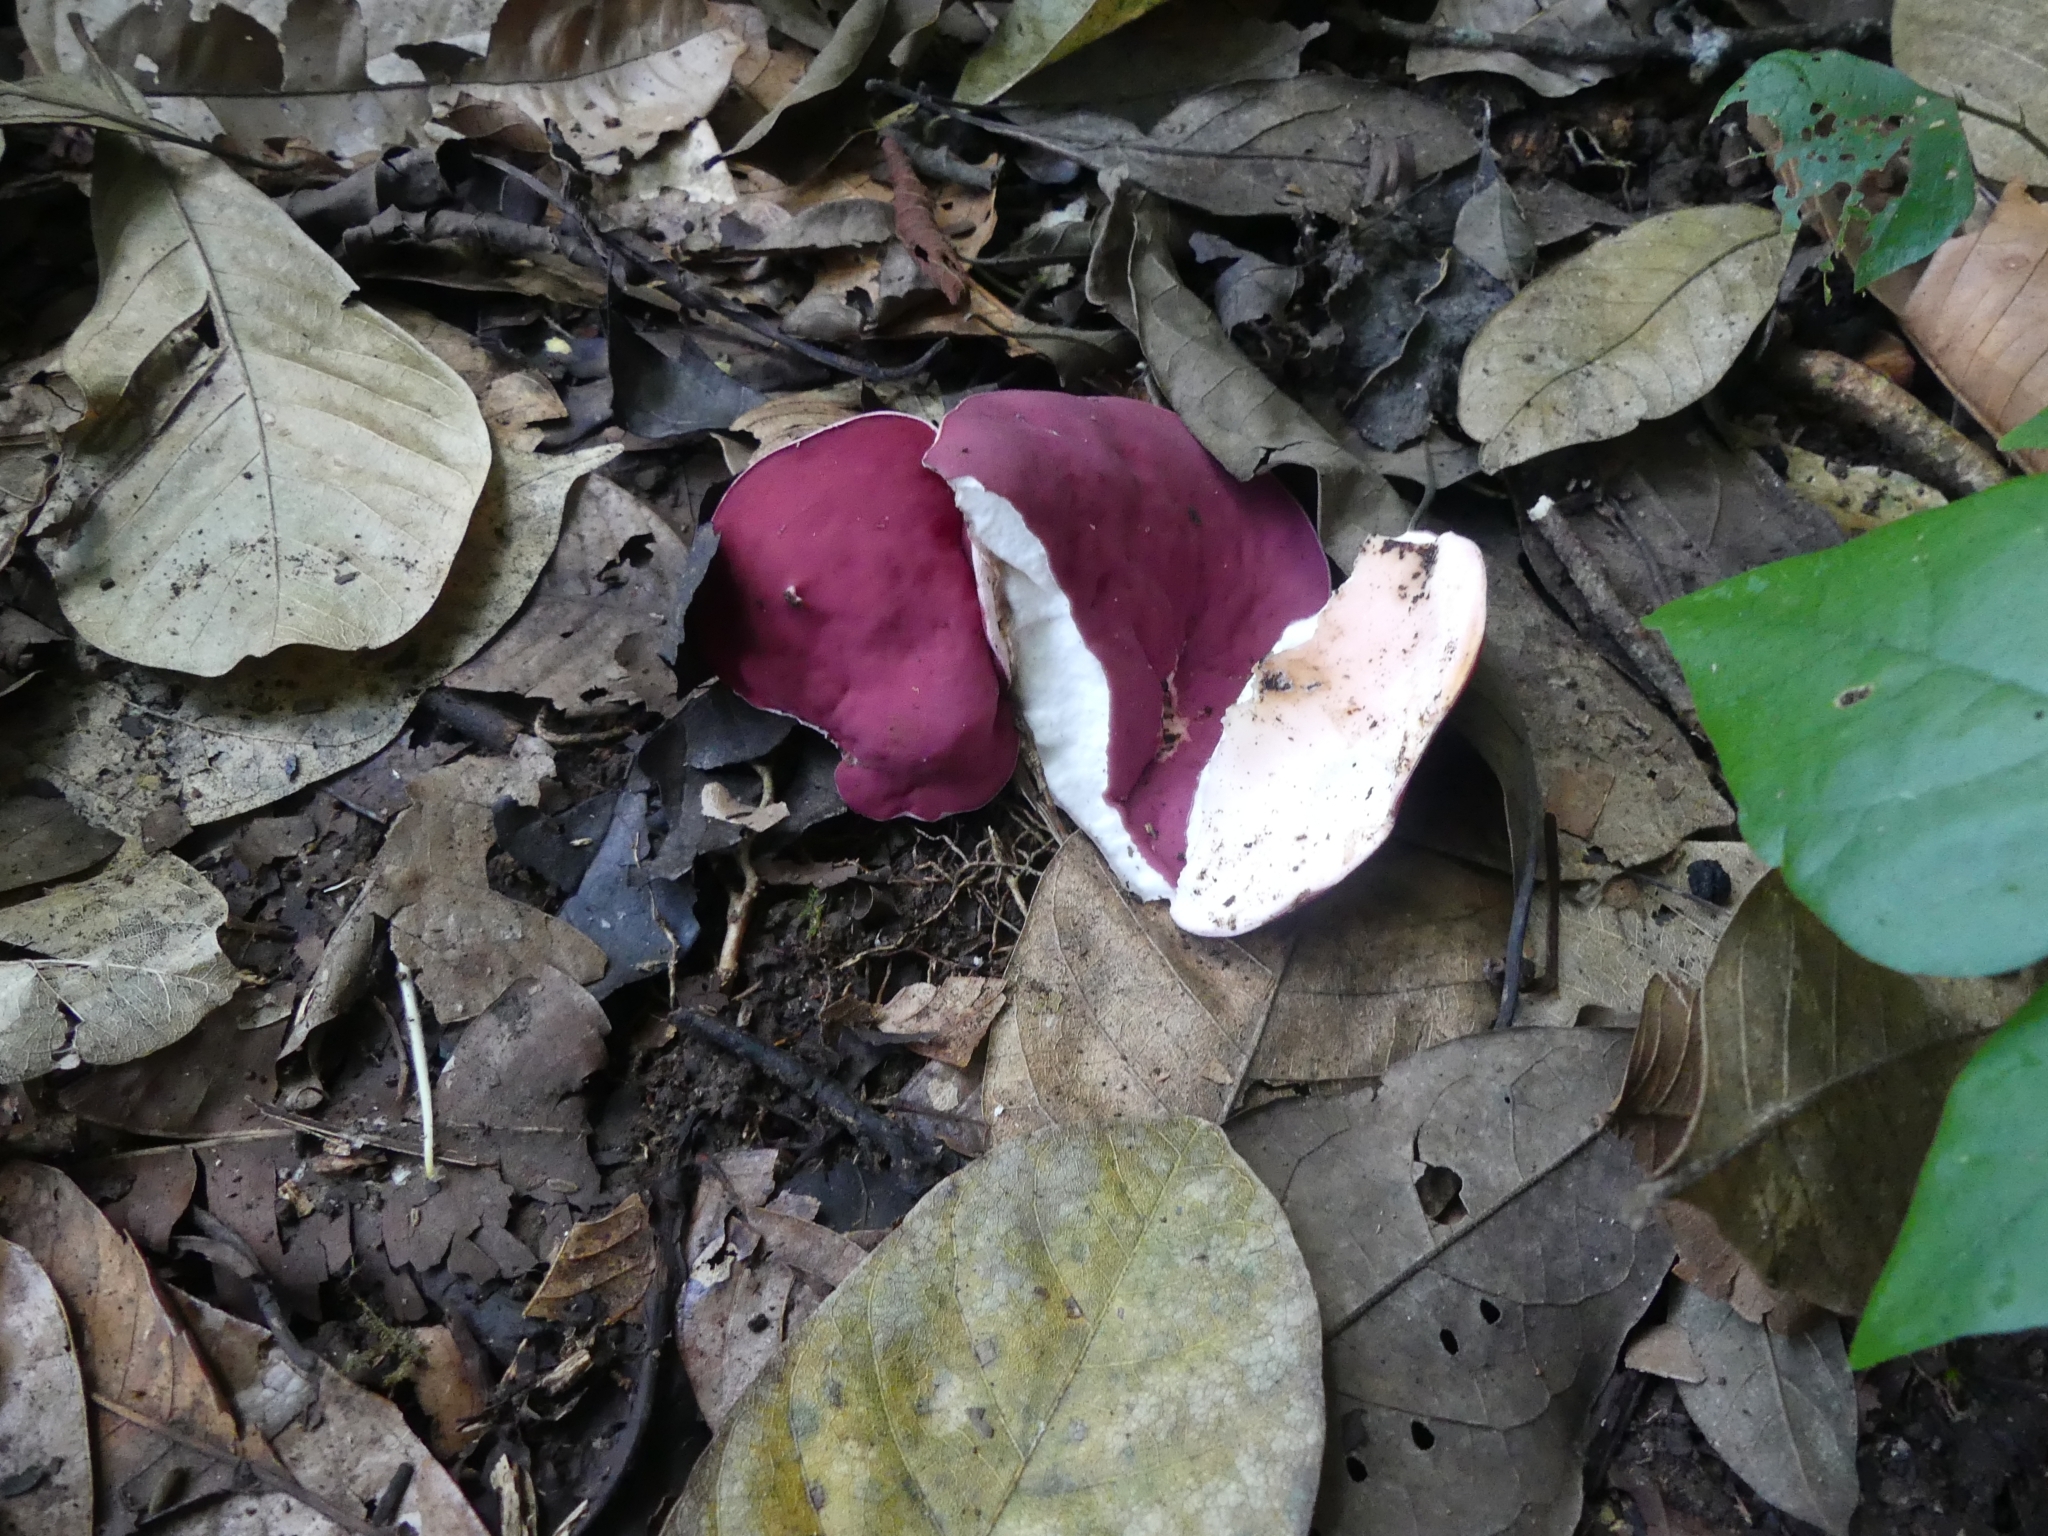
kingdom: Fungi
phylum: Ascomycota
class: Pezizomycetes
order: Pezizales
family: Sarcoscyphaceae
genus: Phillipsia
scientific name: Phillipsia domingensis
